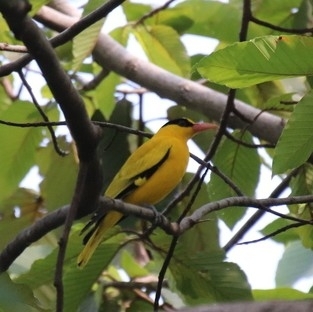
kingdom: Animalia
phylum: Chordata
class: Aves
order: Passeriformes
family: Oriolidae
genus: Oriolus
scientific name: Oriolus chinensis
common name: Black-naped oriole
